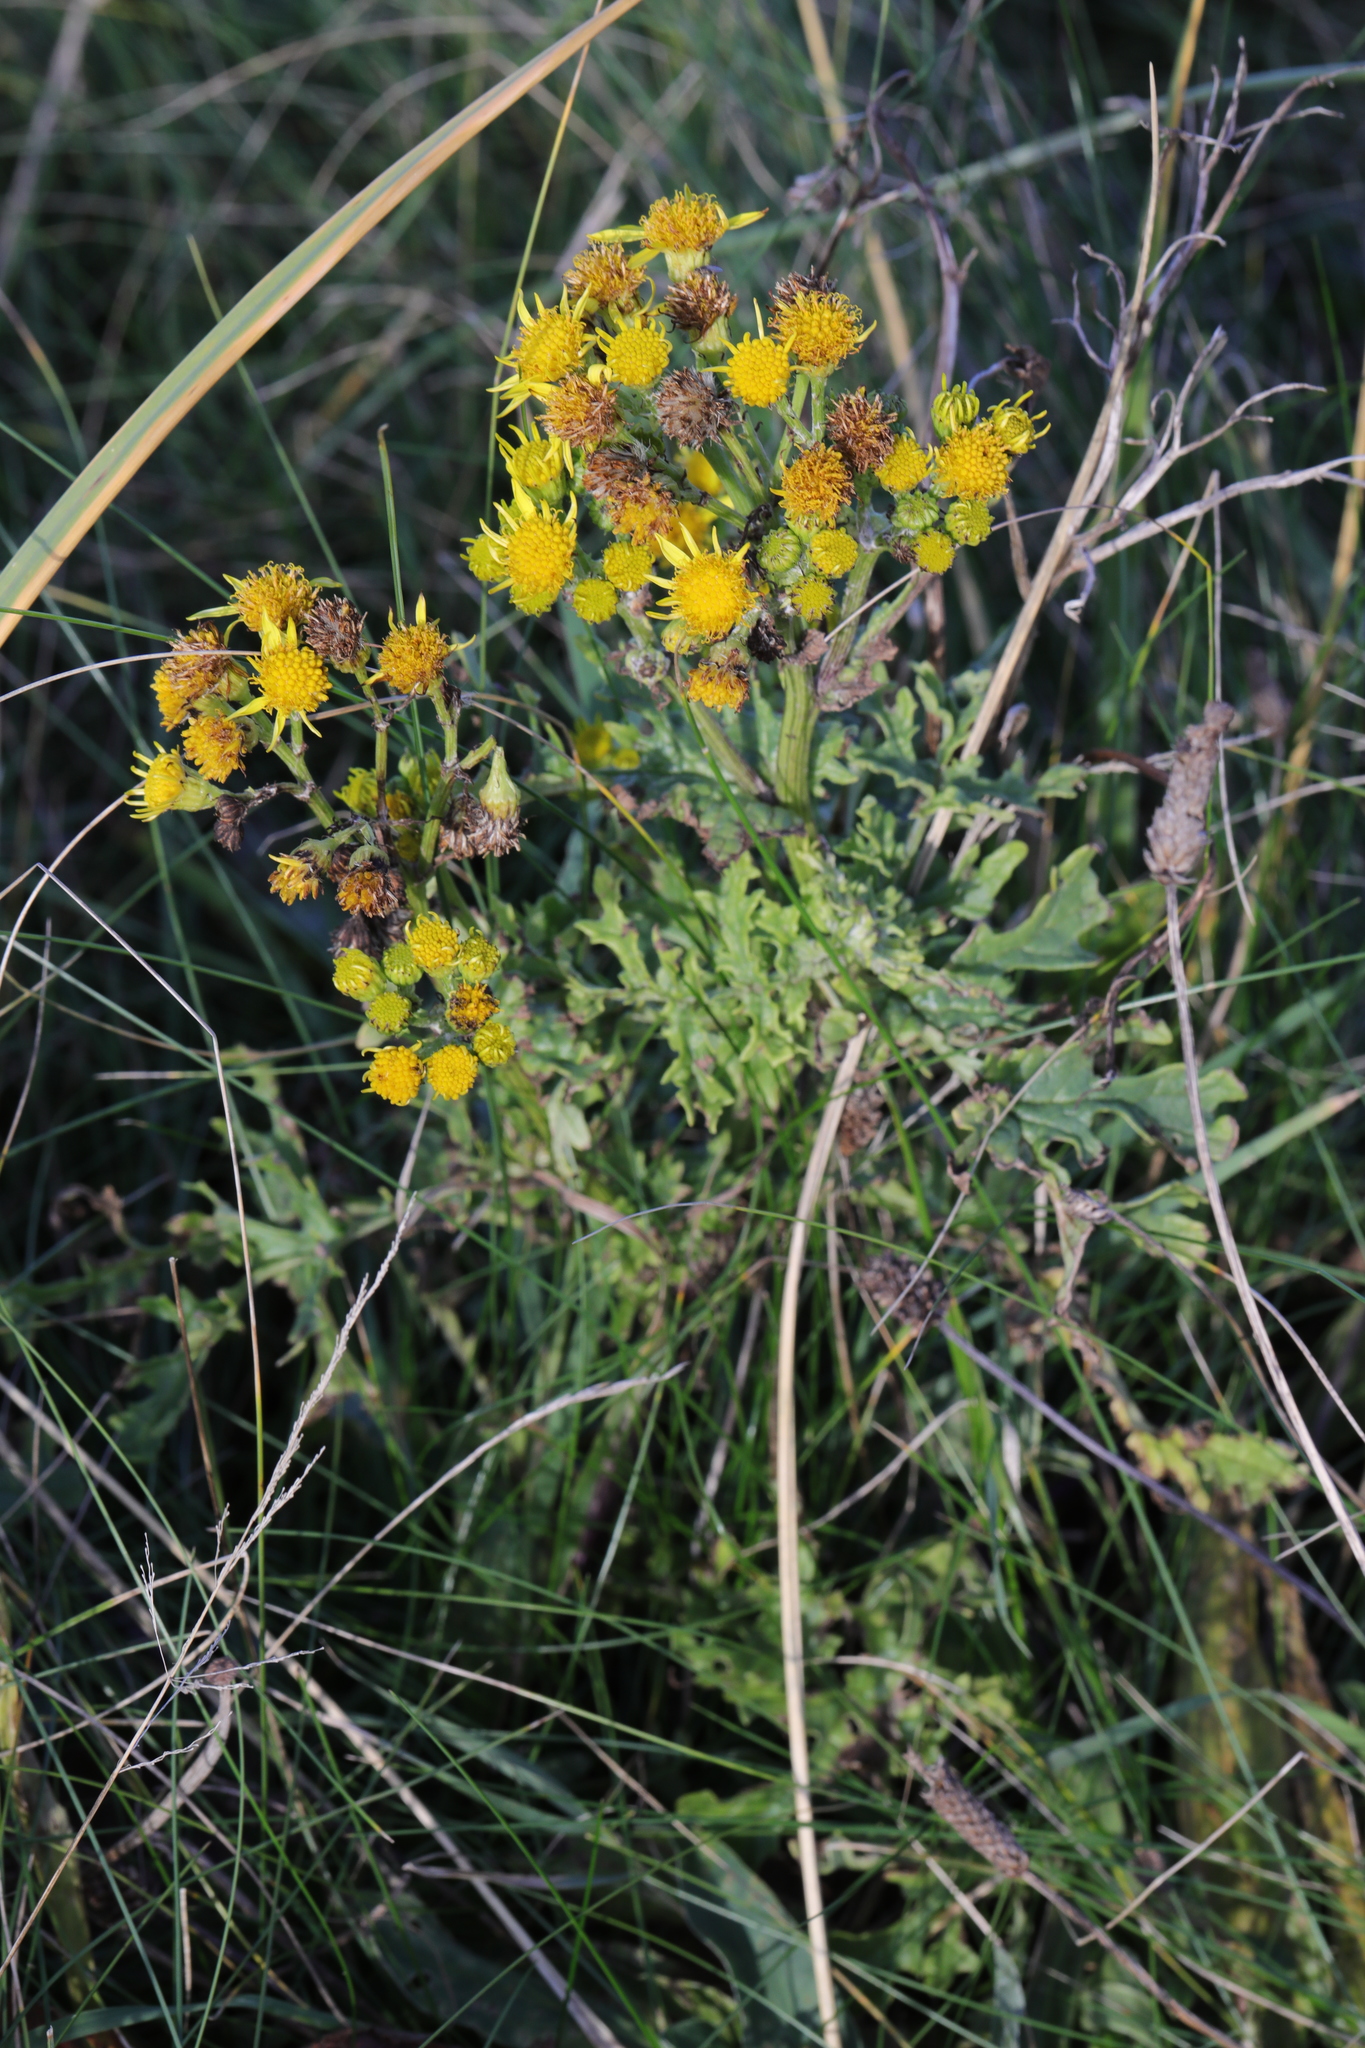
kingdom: Plantae
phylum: Tracheophyta
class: Magnoliopsida
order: Asterales
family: Asteraceae
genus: Jacobaea
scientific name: Jacobaea vulgaris
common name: Stinking willie
